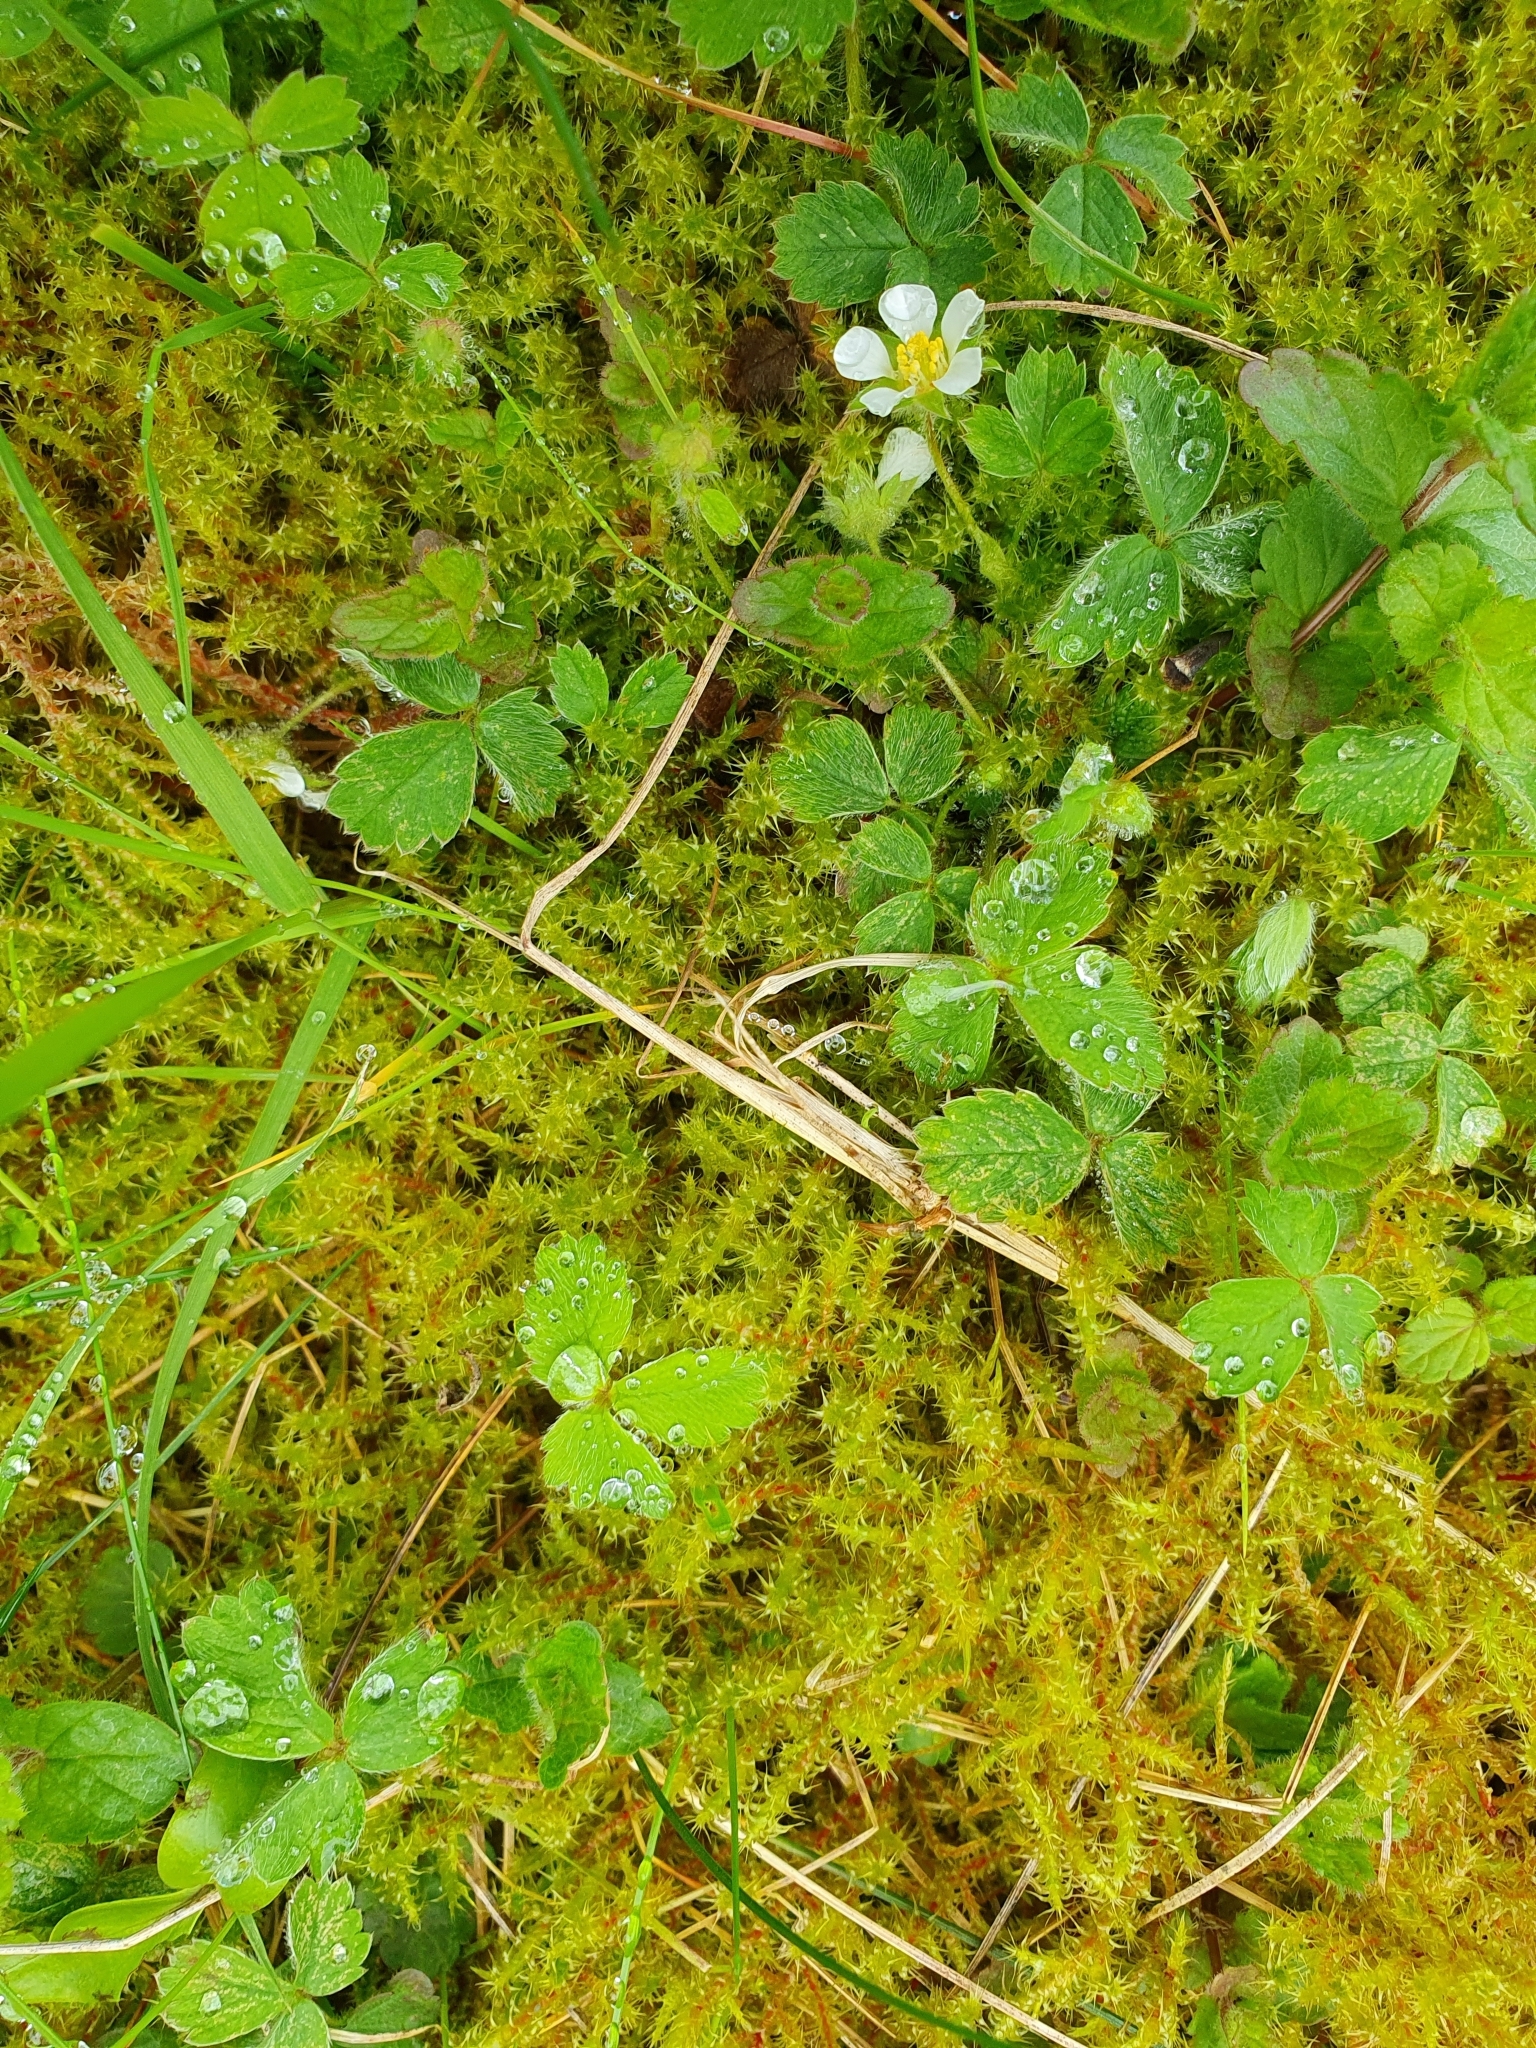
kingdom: Plantae
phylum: Tracheophyta
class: Magnoliopsida
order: Rosales
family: Rosaceae
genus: Potentilla
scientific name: Potentilla sterilis
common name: Barren strawberry
